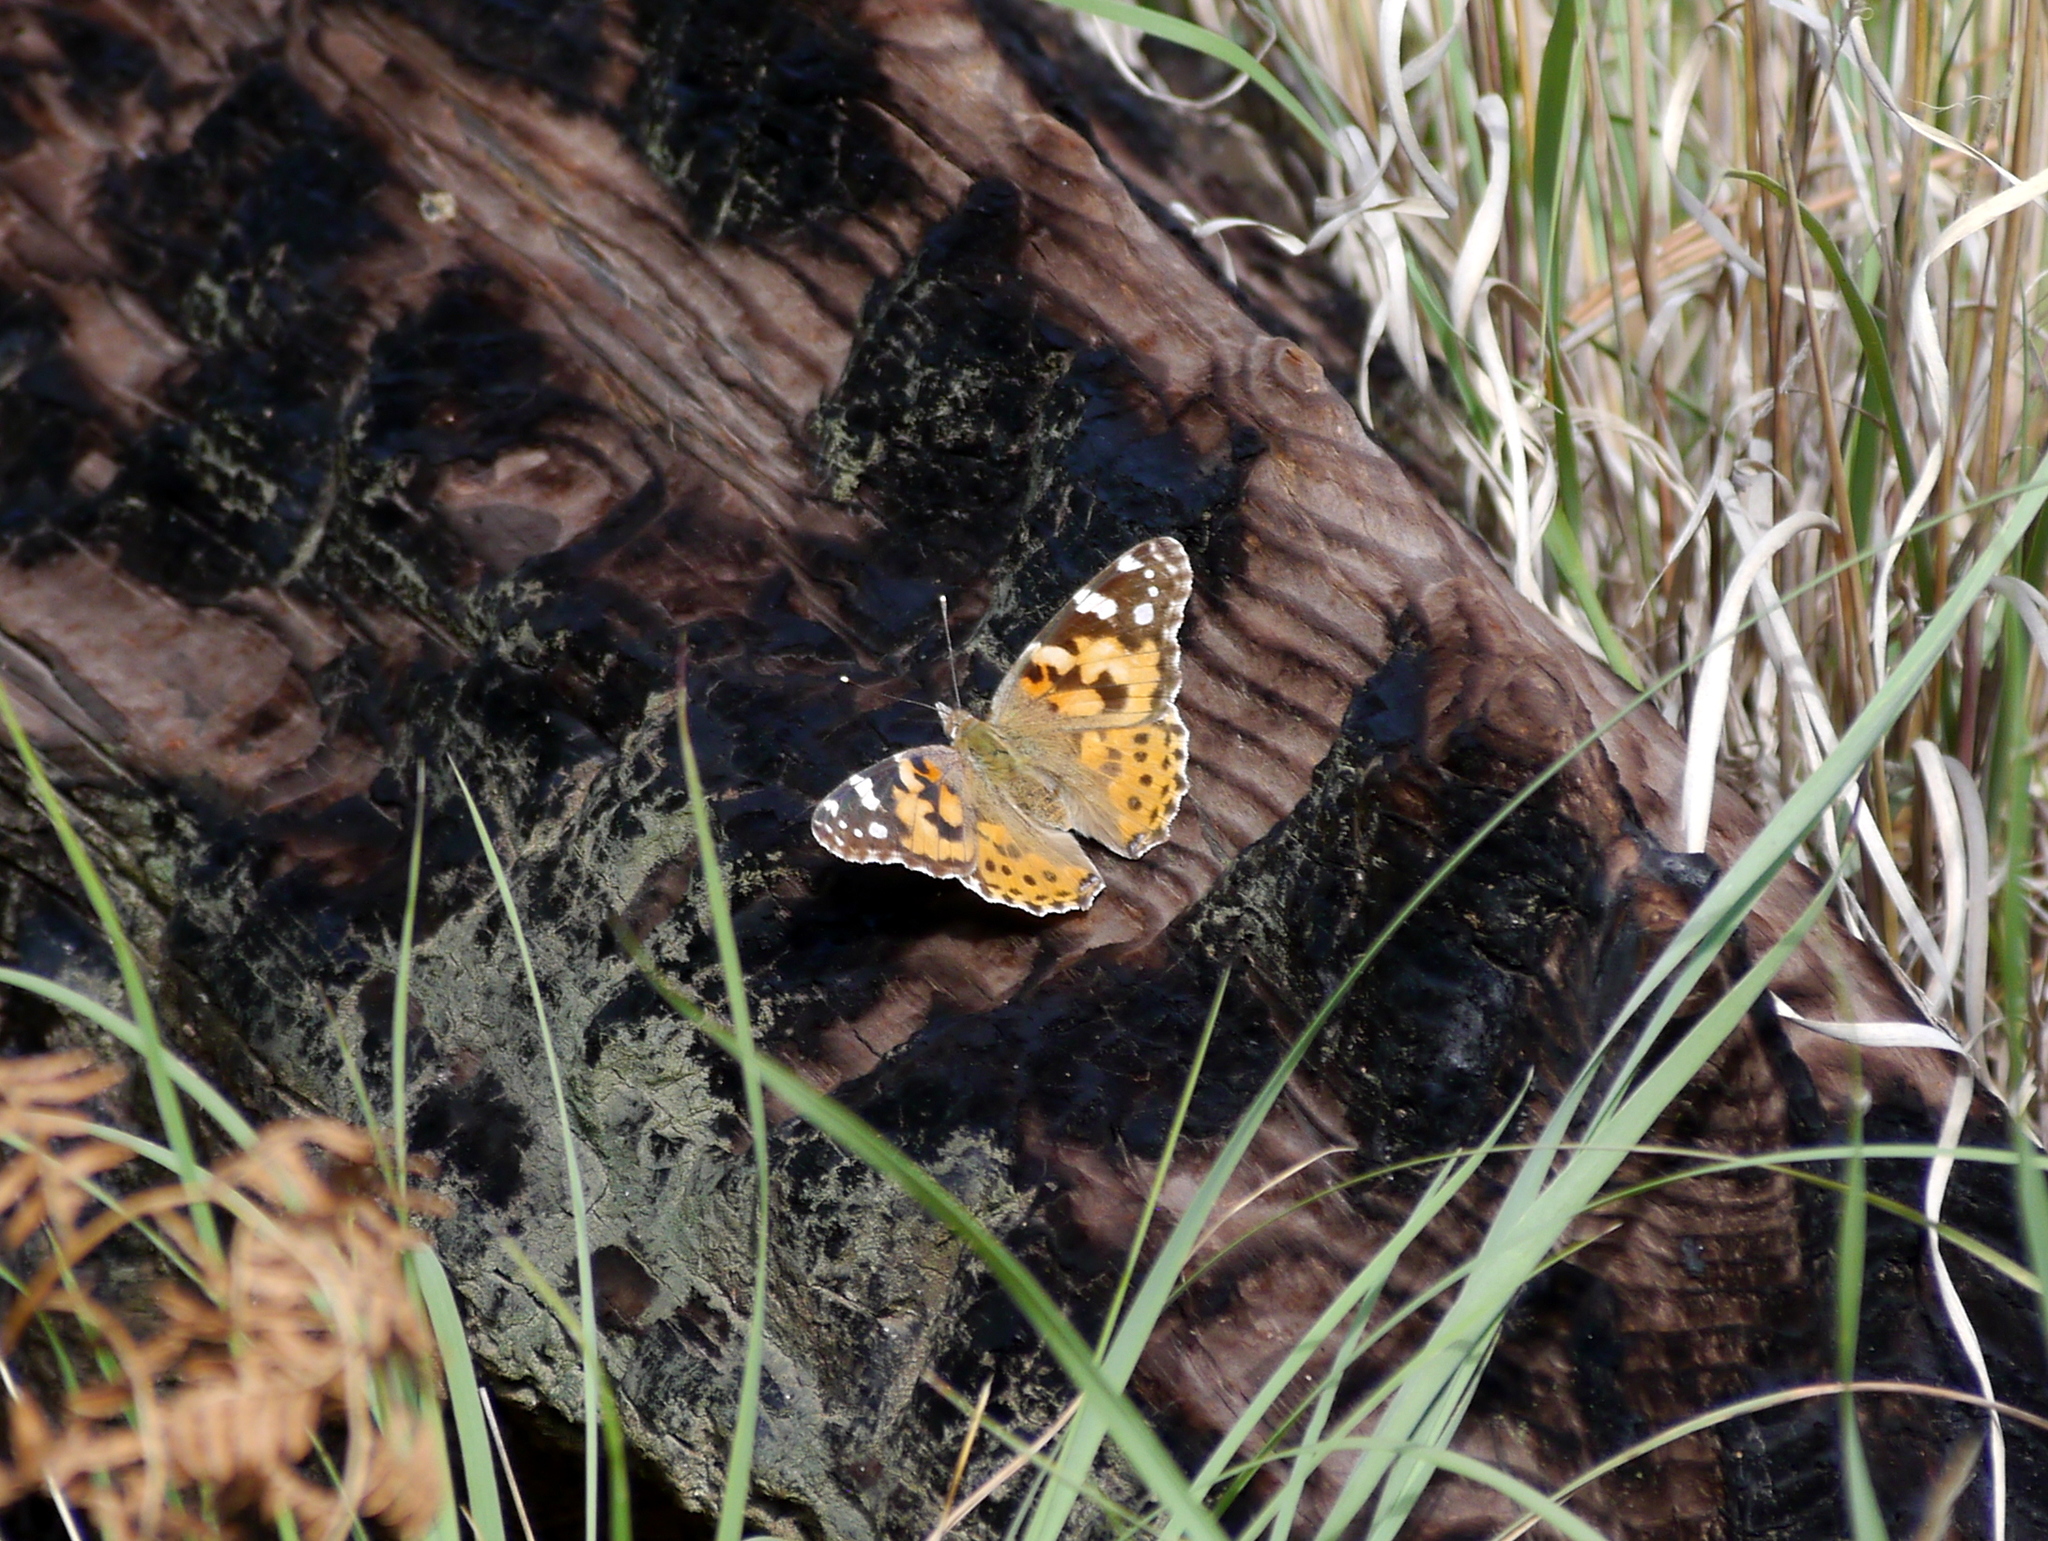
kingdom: Animalia
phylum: Arthropoda
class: Insecta
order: Lepidoptera
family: Nymphalidae
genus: Vanessa
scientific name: Vanessa cardui
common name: Painted lady
